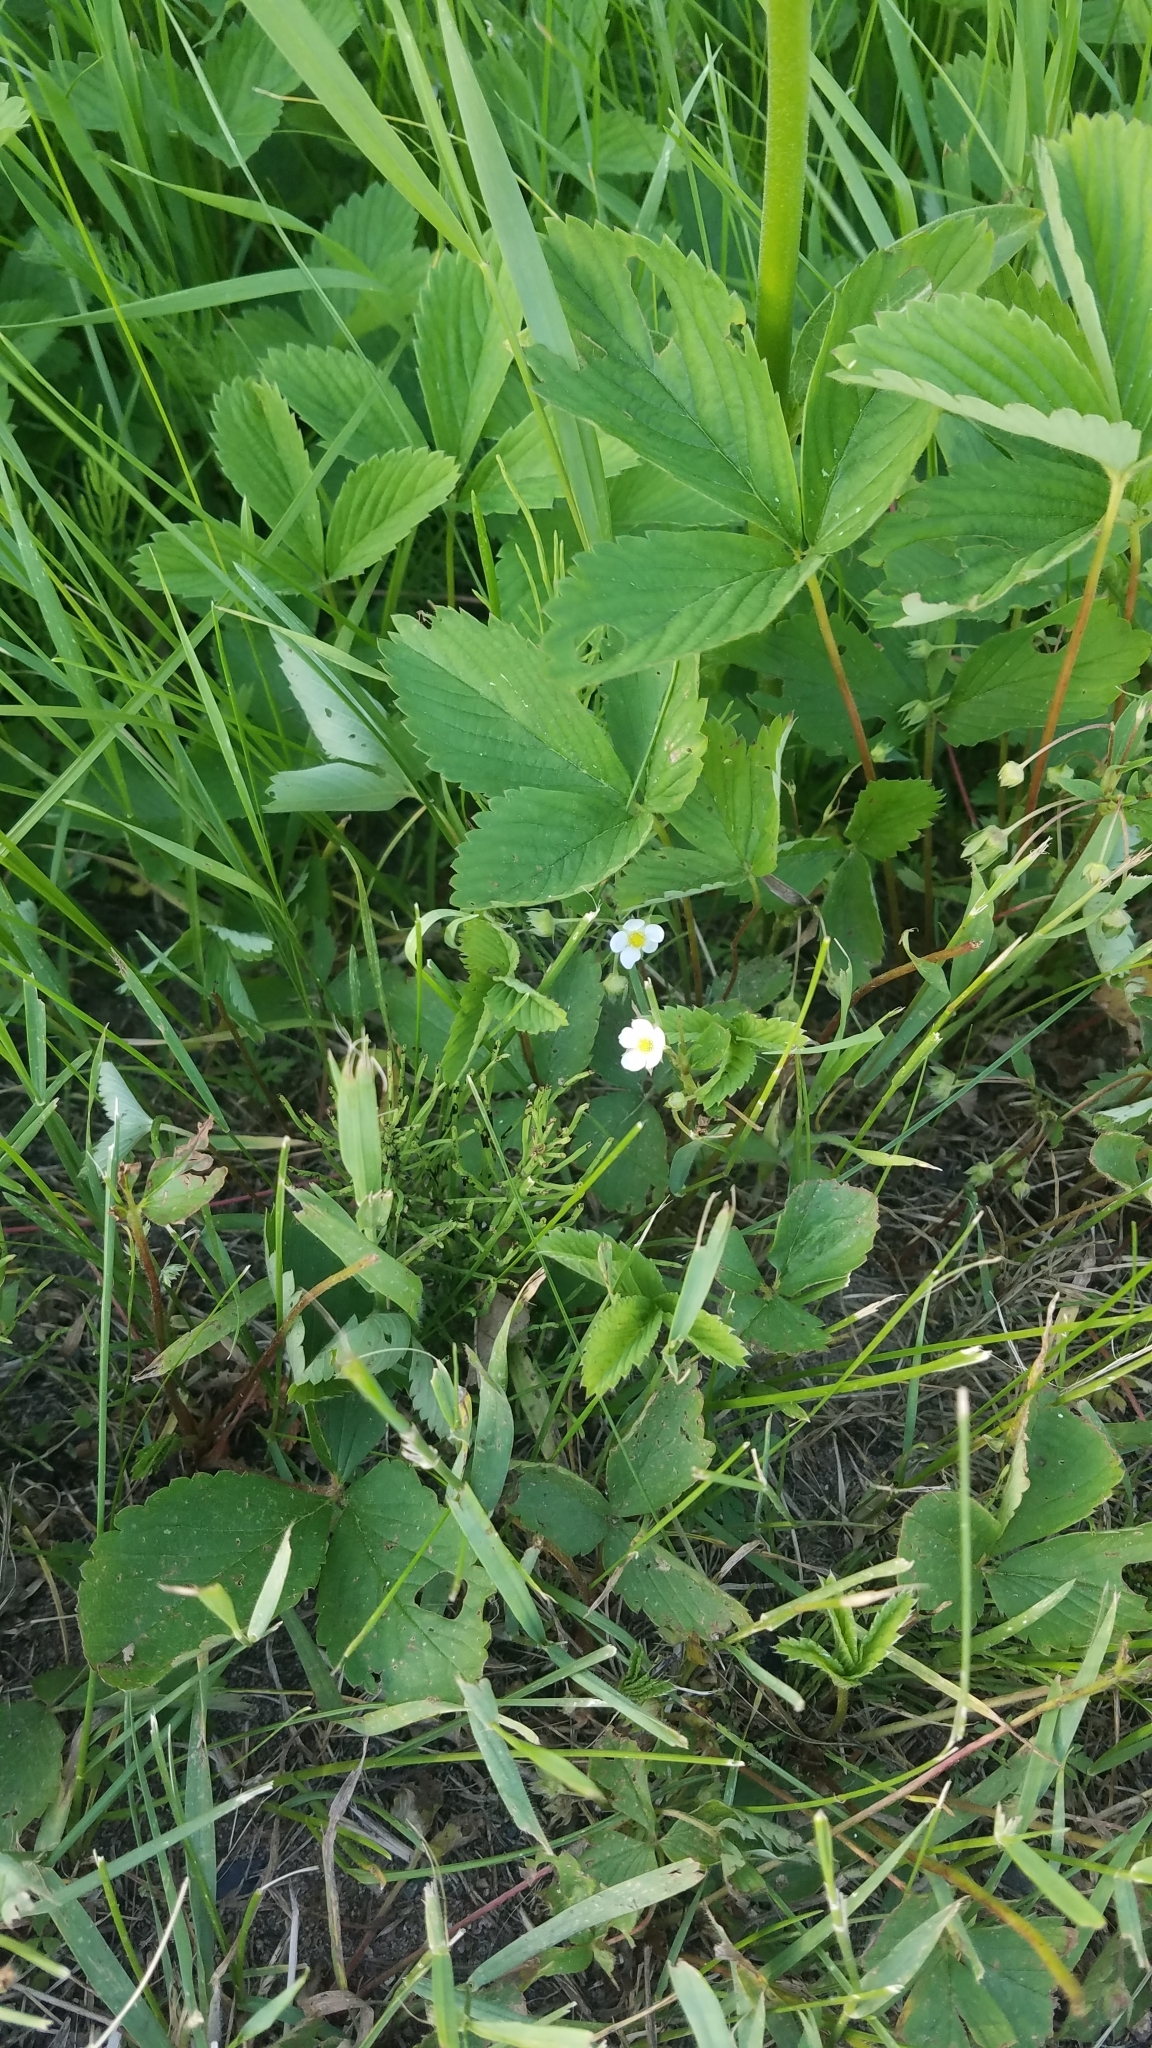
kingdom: Plantae
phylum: Tracheophyta
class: Magnoliopsida
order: Rosales
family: Rosaceae
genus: Fragaria
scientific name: Fragaria vesca
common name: Wild strawberry
